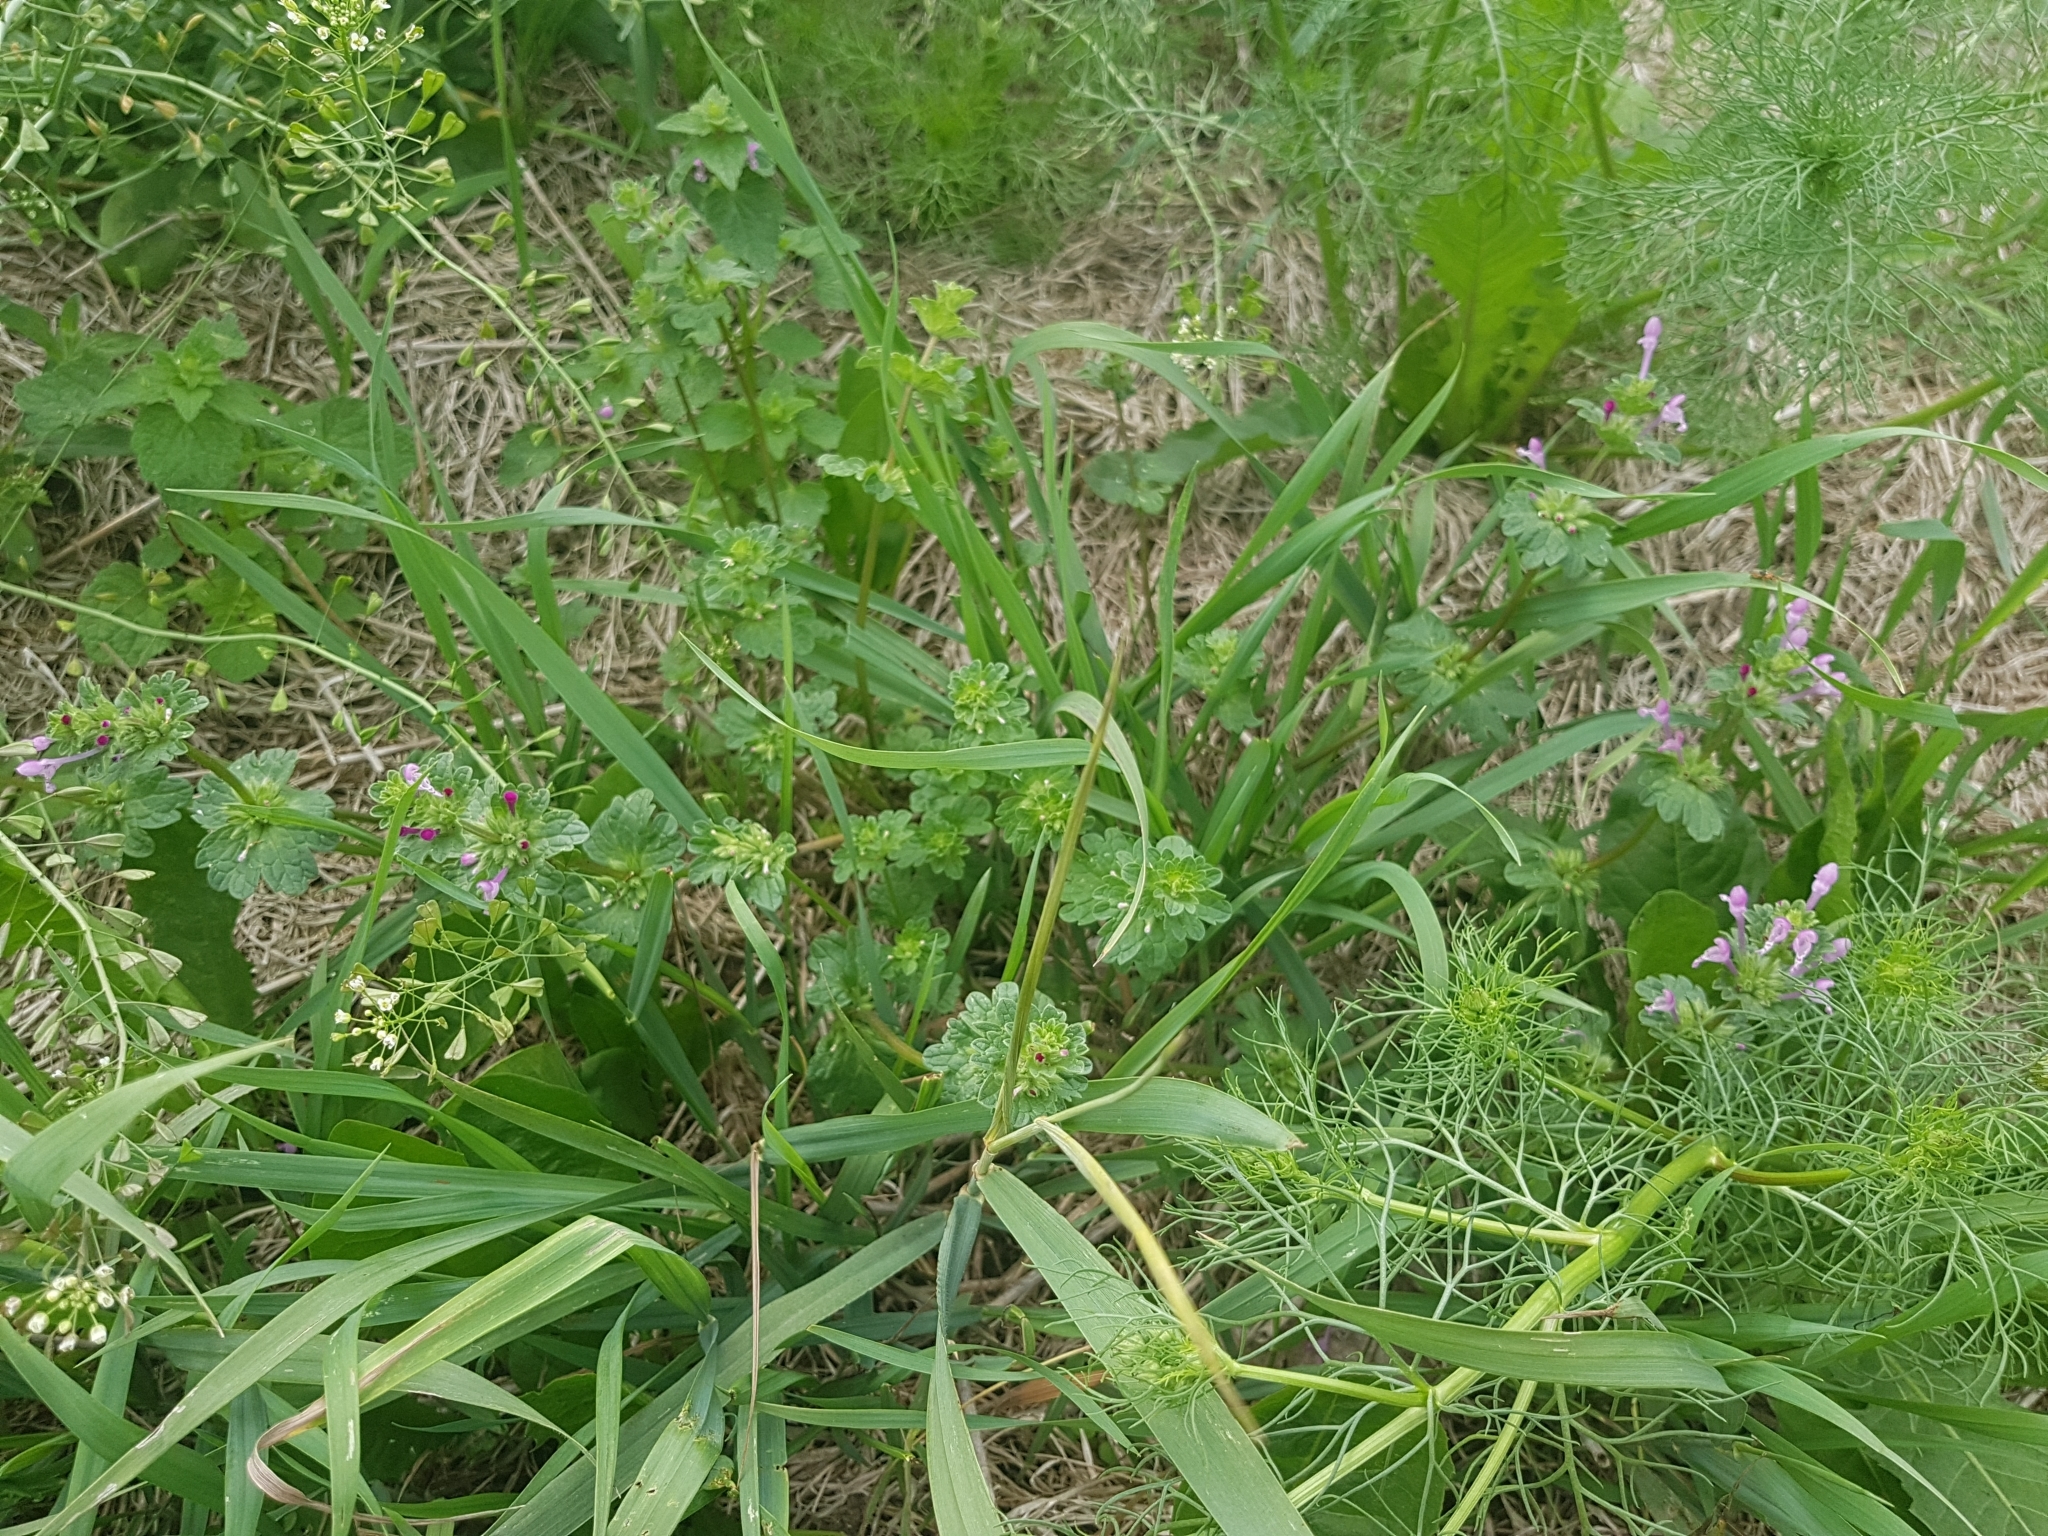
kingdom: Plantae
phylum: Tracheophyta
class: Magnoliopsida
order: Lamiales
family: Lamiaceae
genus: Lamium
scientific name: Lamium amplexicaule
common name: Henbit dead-nettle
